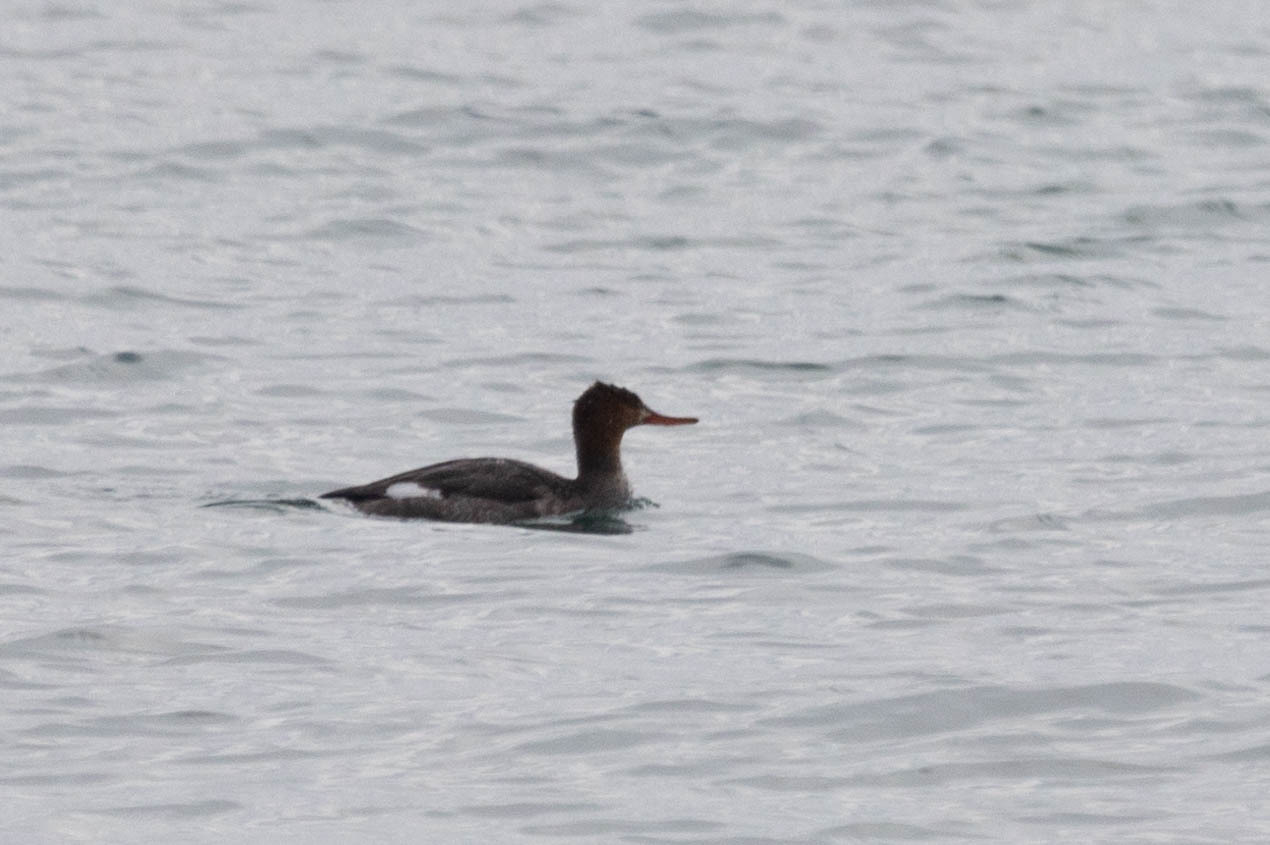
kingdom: Animalia
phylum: Chordata
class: Aves
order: Anseriformes
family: Anatidae
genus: Mergus
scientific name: Mergus serrator
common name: Red-breasted merganser
